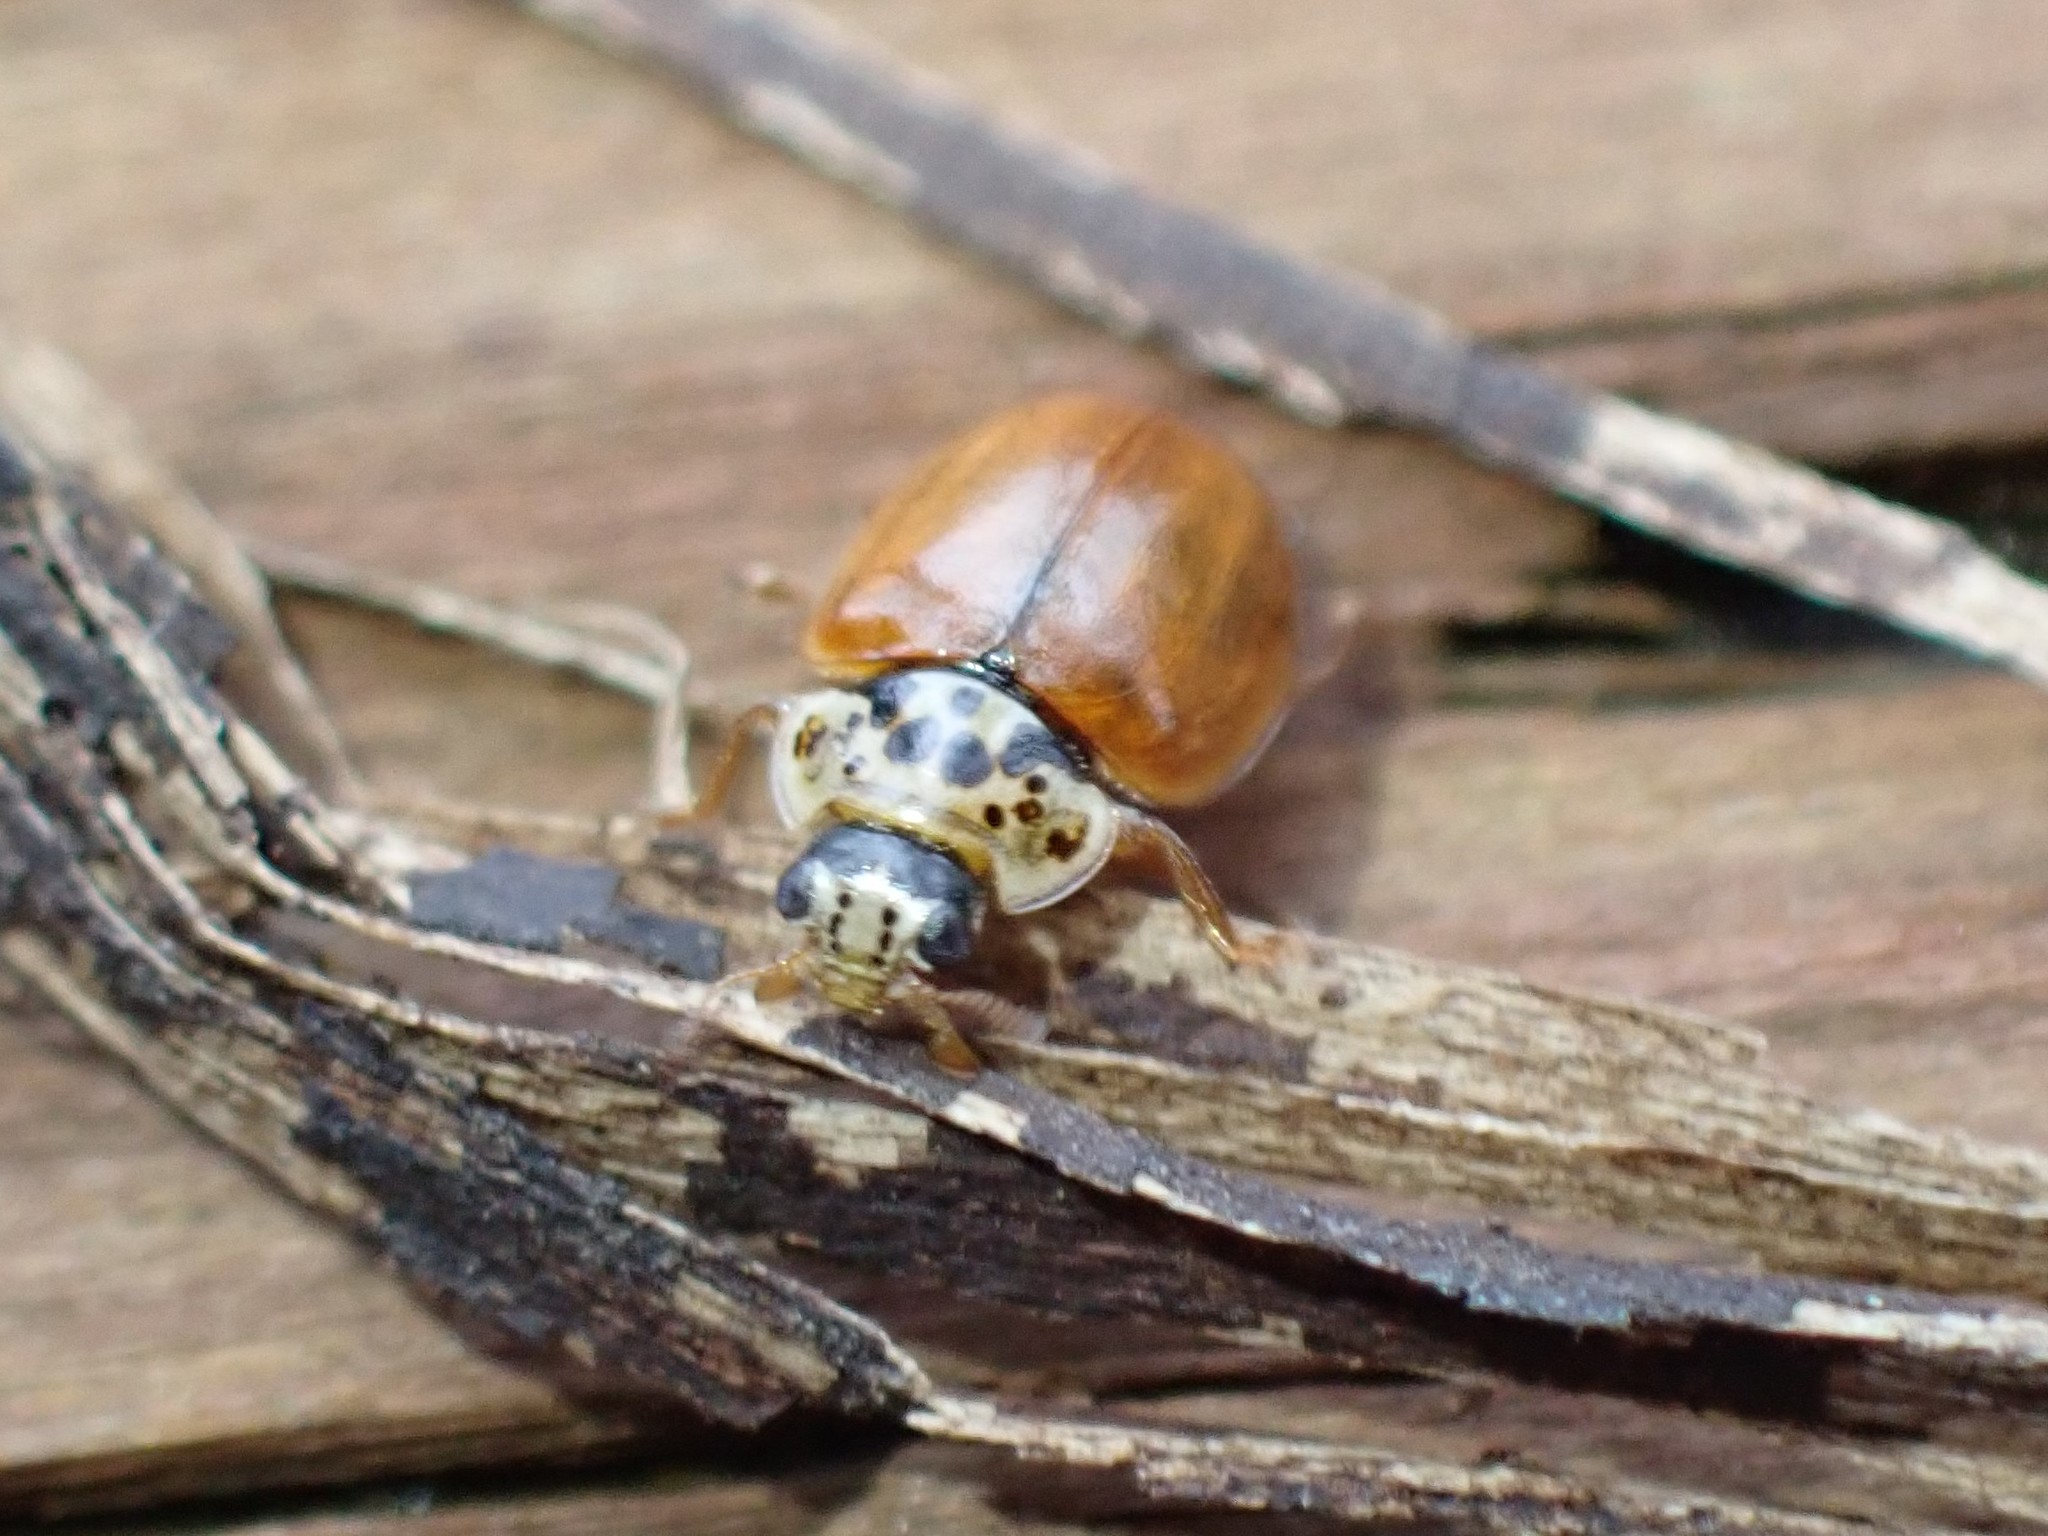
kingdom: Animalia
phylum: Arthropoda
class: Insecta
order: Coleoptera
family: Coccinellidae
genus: Mulsantina
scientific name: Mulsantina picta
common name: Painted ladybird
